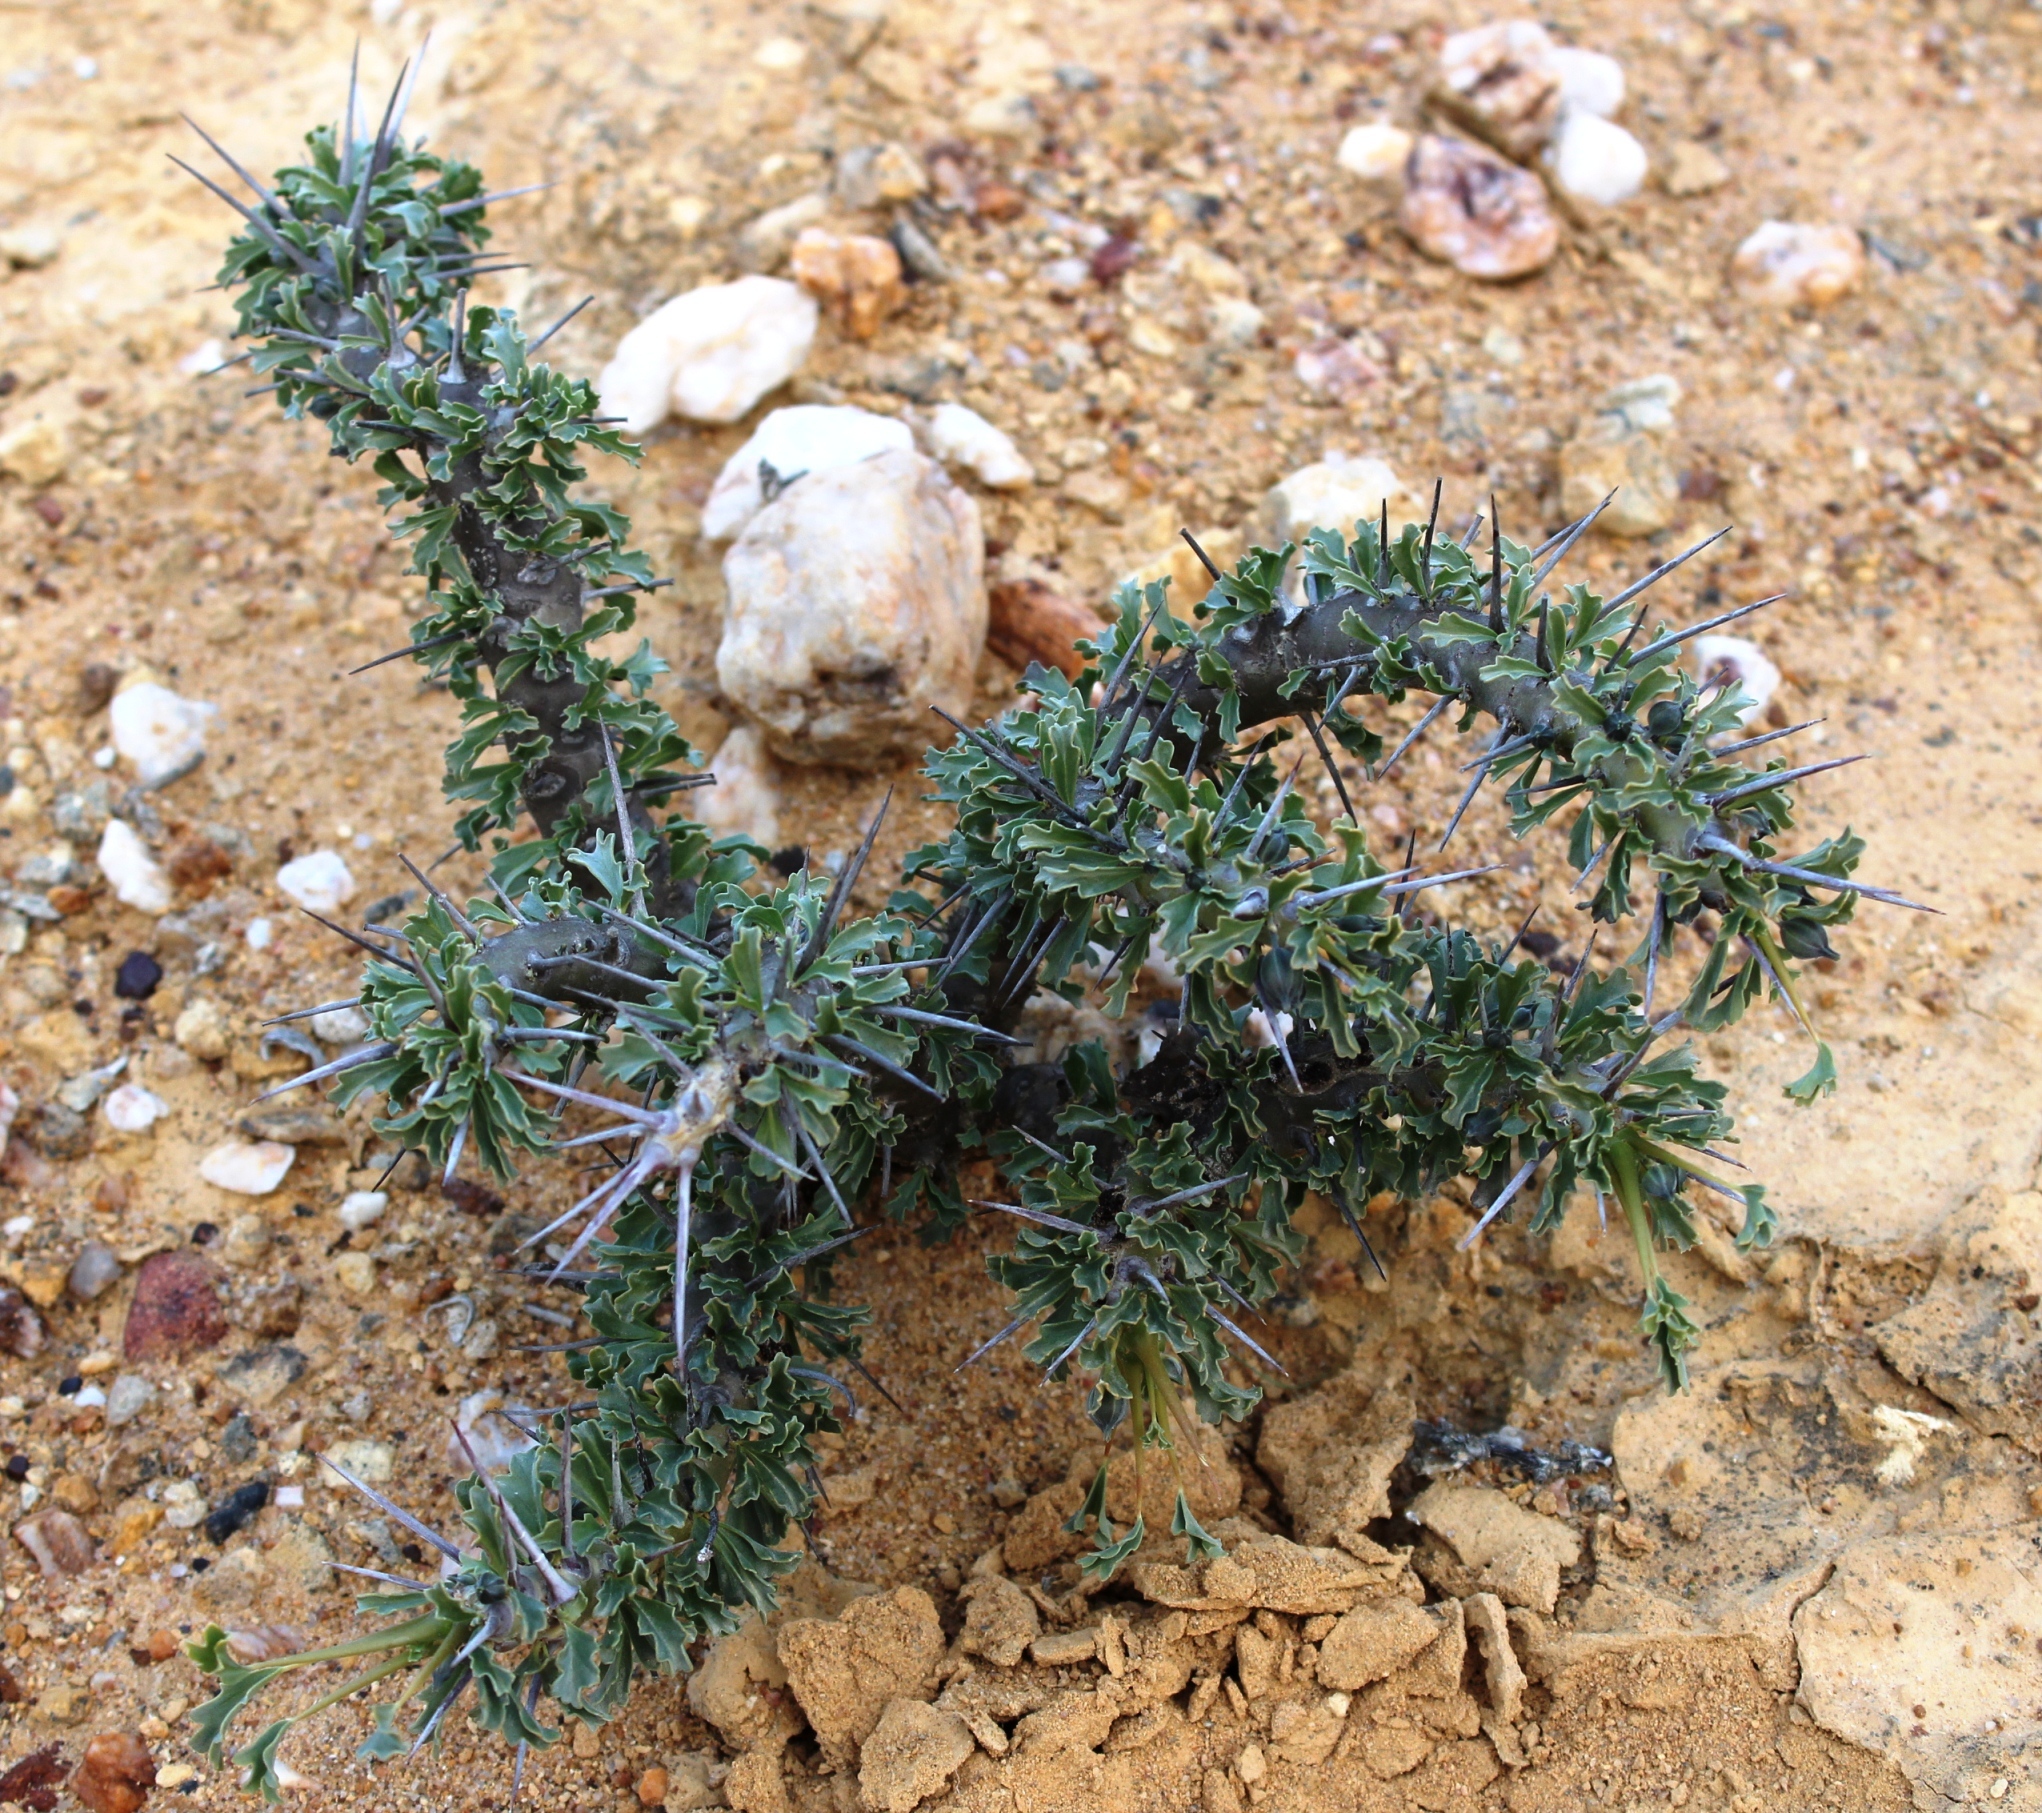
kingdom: Plantae
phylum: Tracheophyta
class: Magnoliopsida
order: Geraniales
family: Geraniaceae
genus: Monsonia
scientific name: Monsonia crassicaulis
